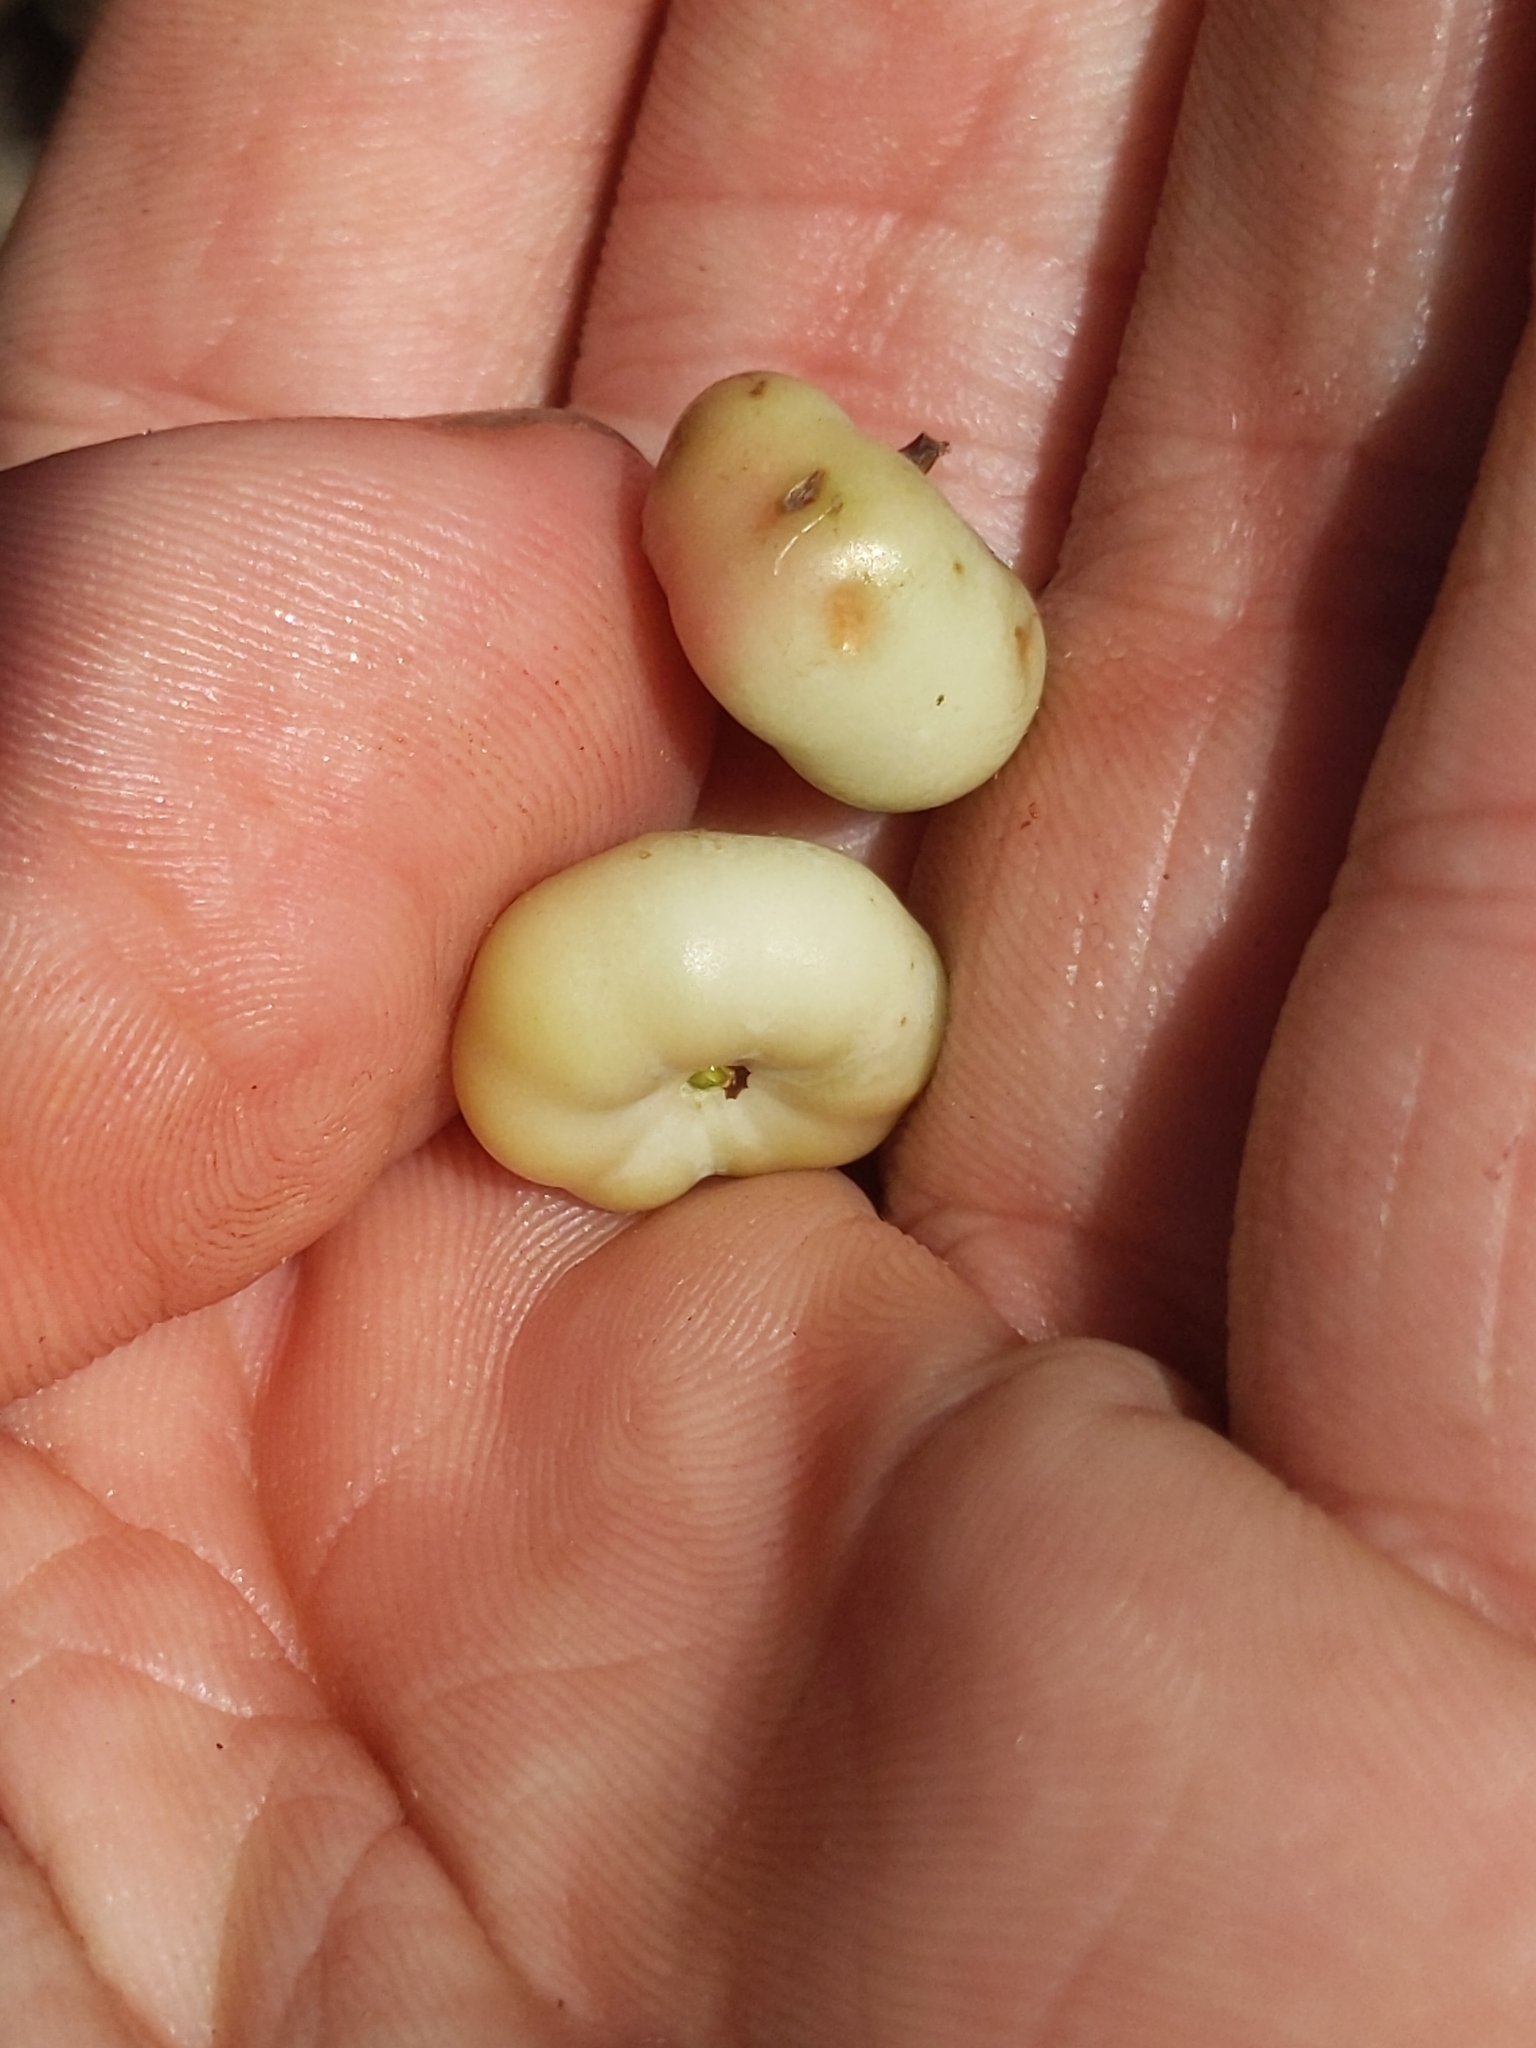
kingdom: Plantae
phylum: Tracheophyta
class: Magnoliopsida
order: Ericales
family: Ericaceae
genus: Arctostaphylos
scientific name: Arctostaphylos pechoensis
